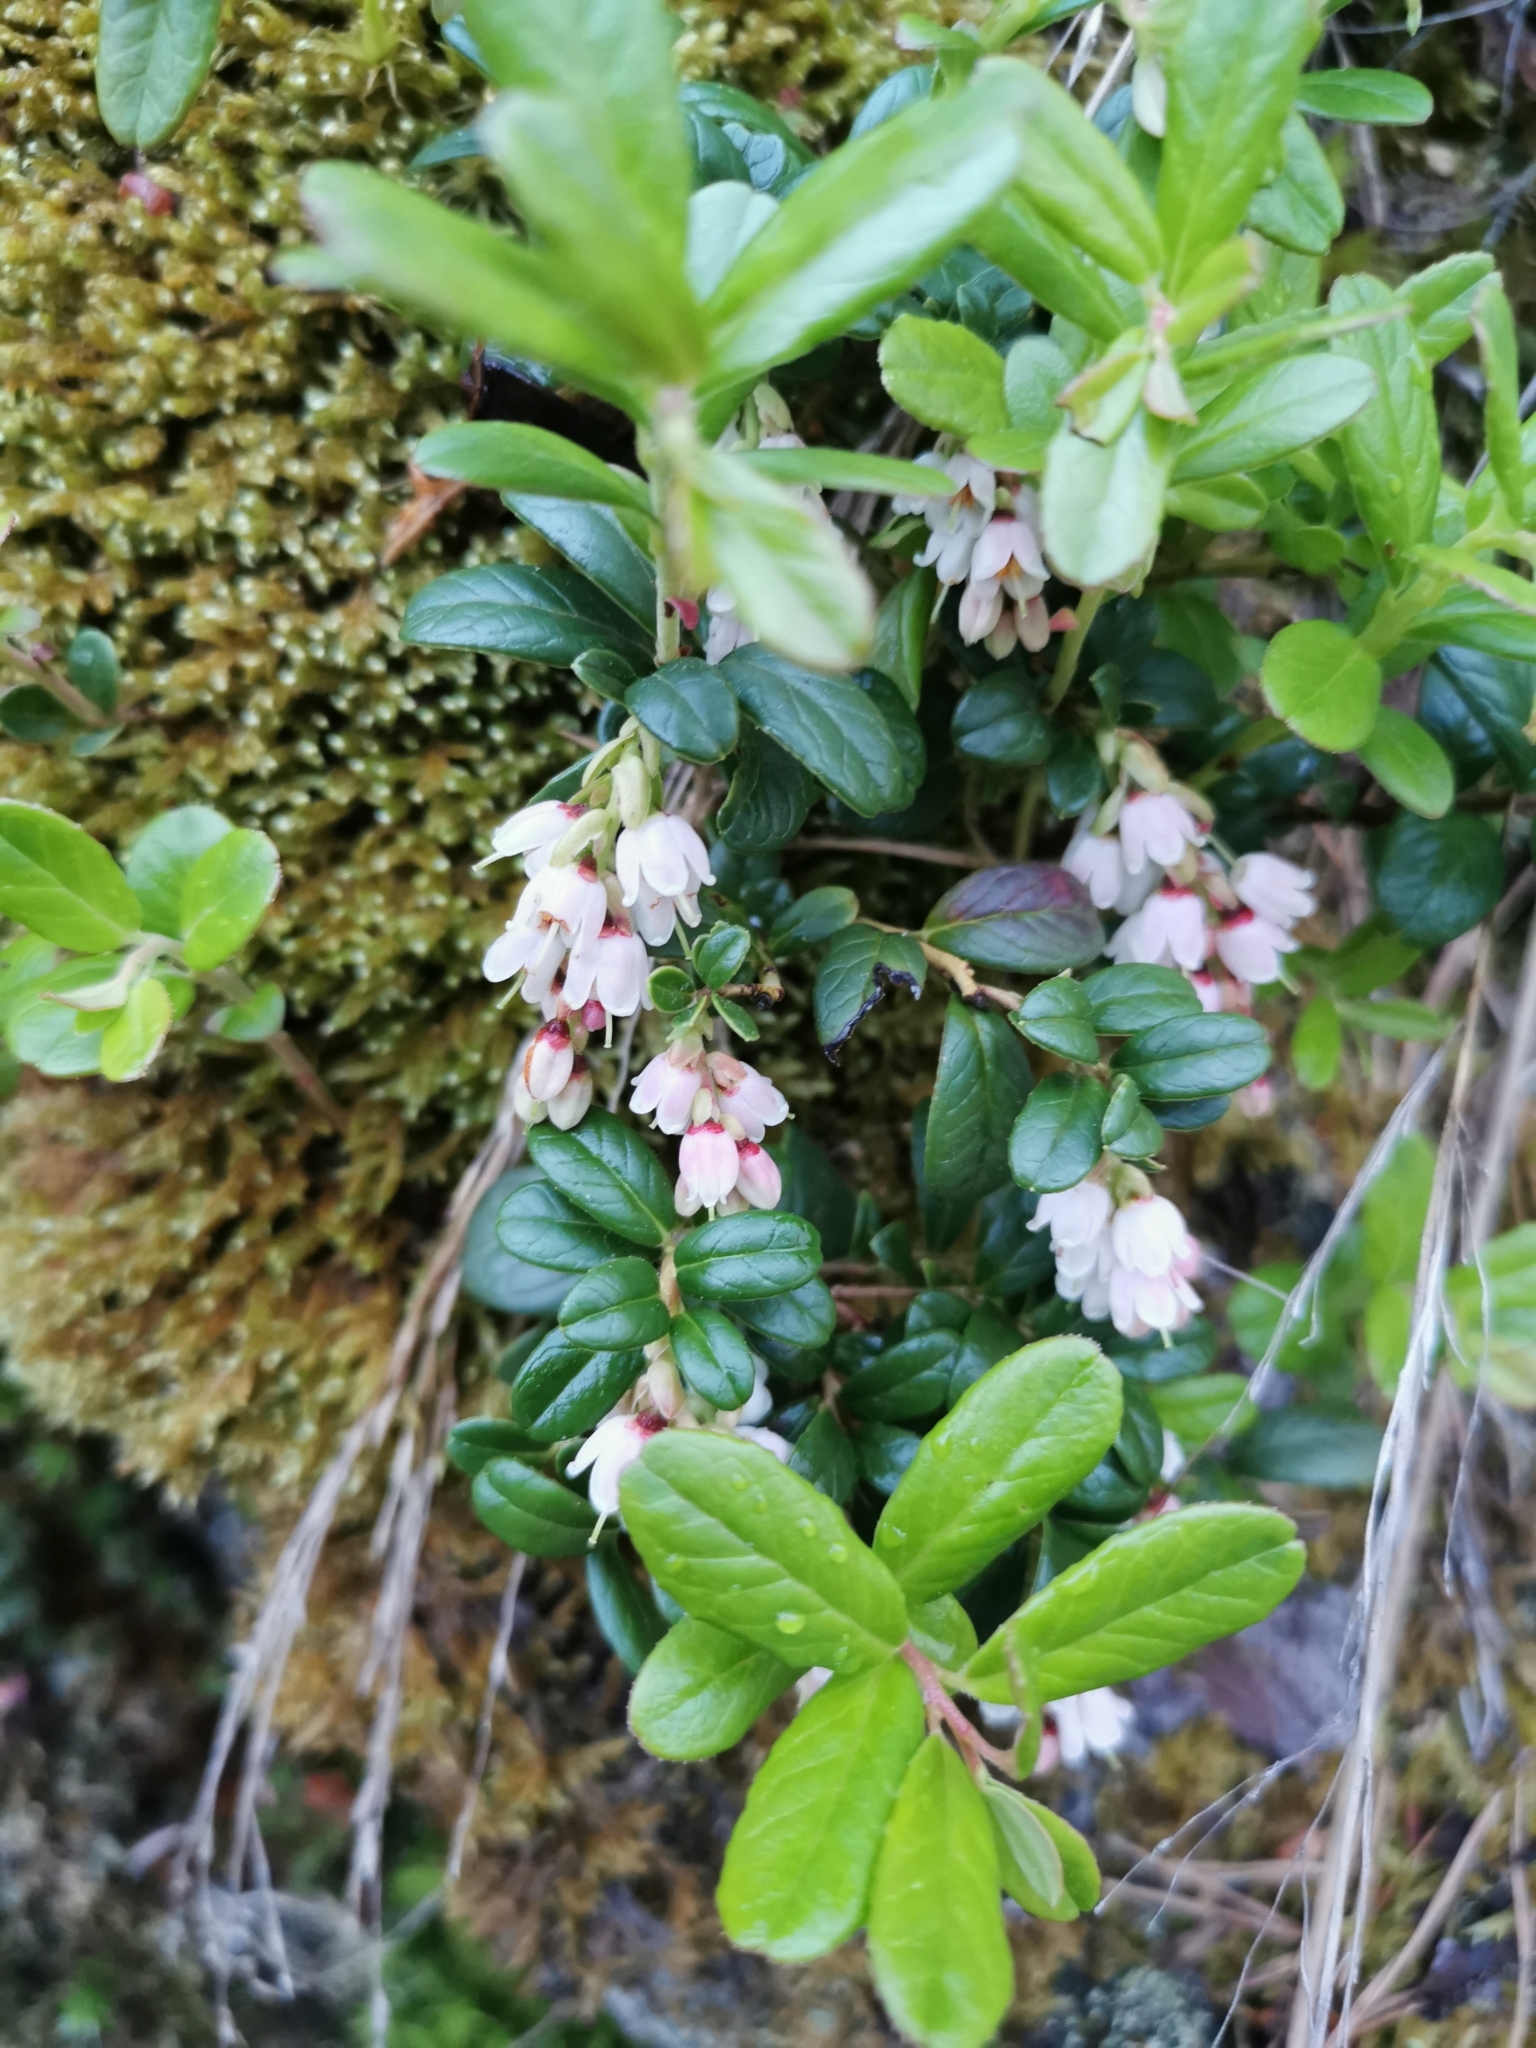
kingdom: Plantae
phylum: Tracheophyta
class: Magnoliopsida
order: Ericales
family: Ericaceae
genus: Vaccinium
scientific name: Vaccinium vitis-idaea
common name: Cowberry
